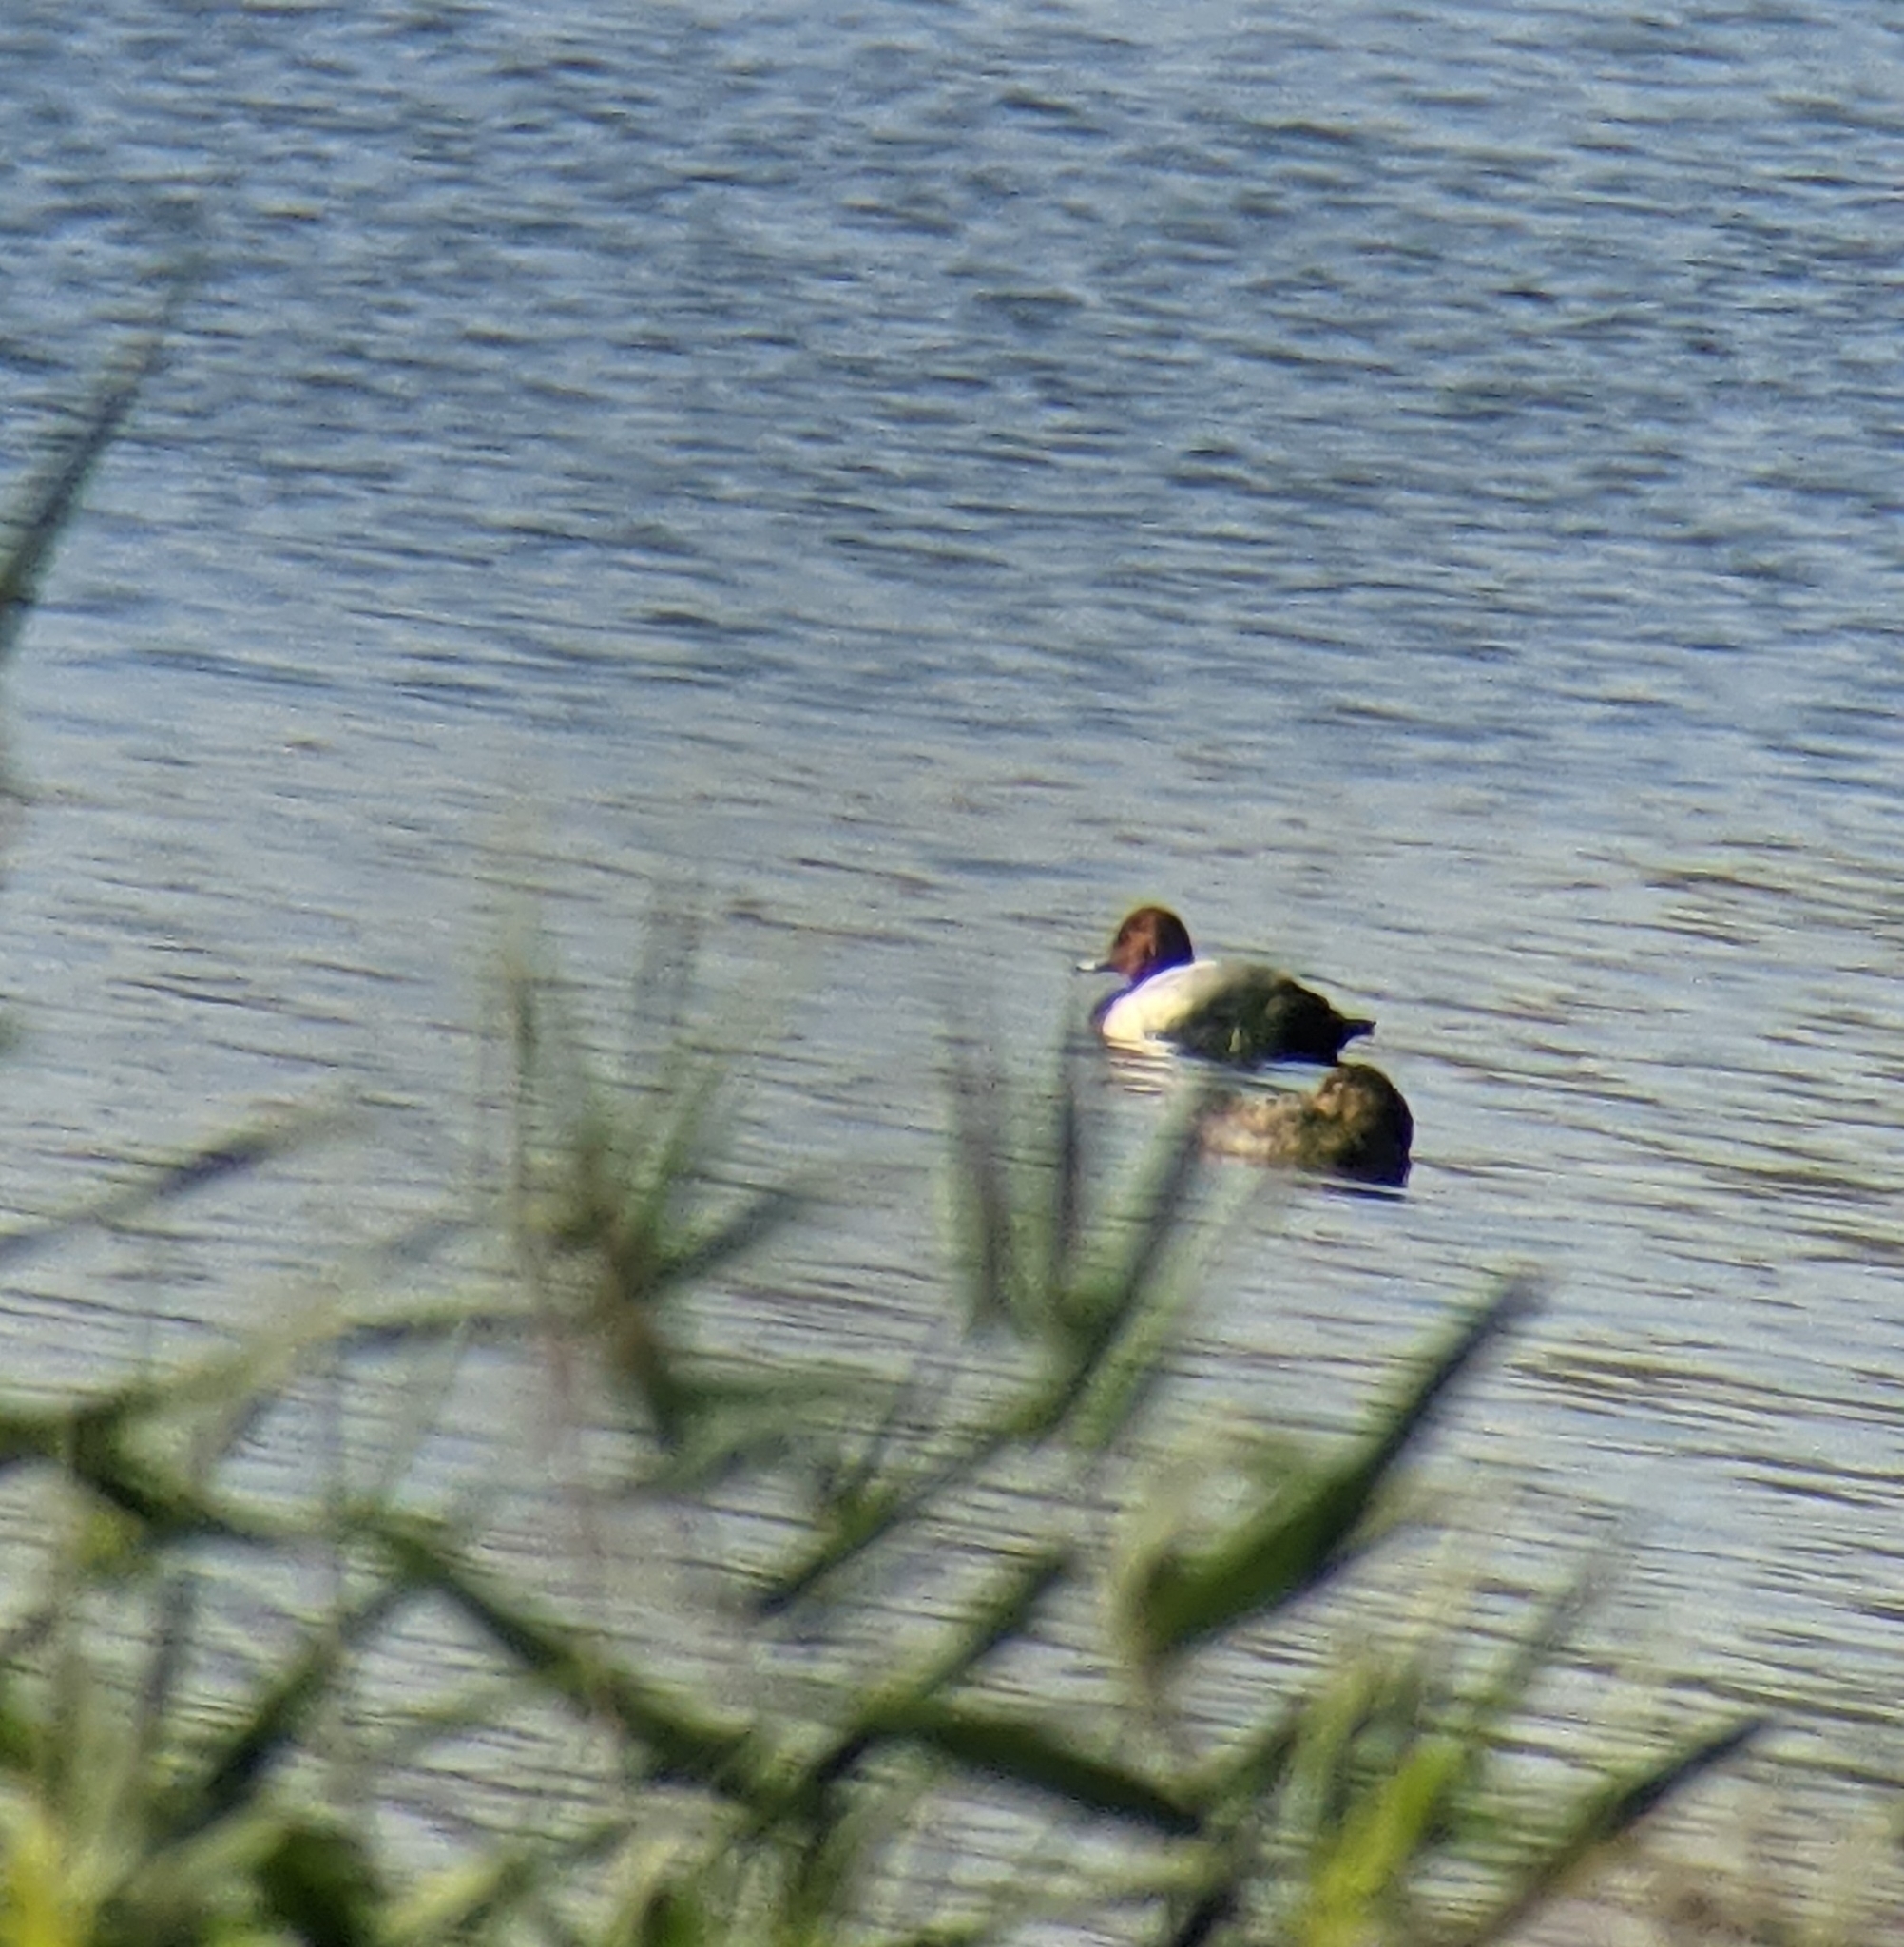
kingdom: Animalia
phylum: Chordata
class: Aves
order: Anseriformes
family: Anatidae
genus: Aythya
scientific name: Aythya ferina
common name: Common pochard
